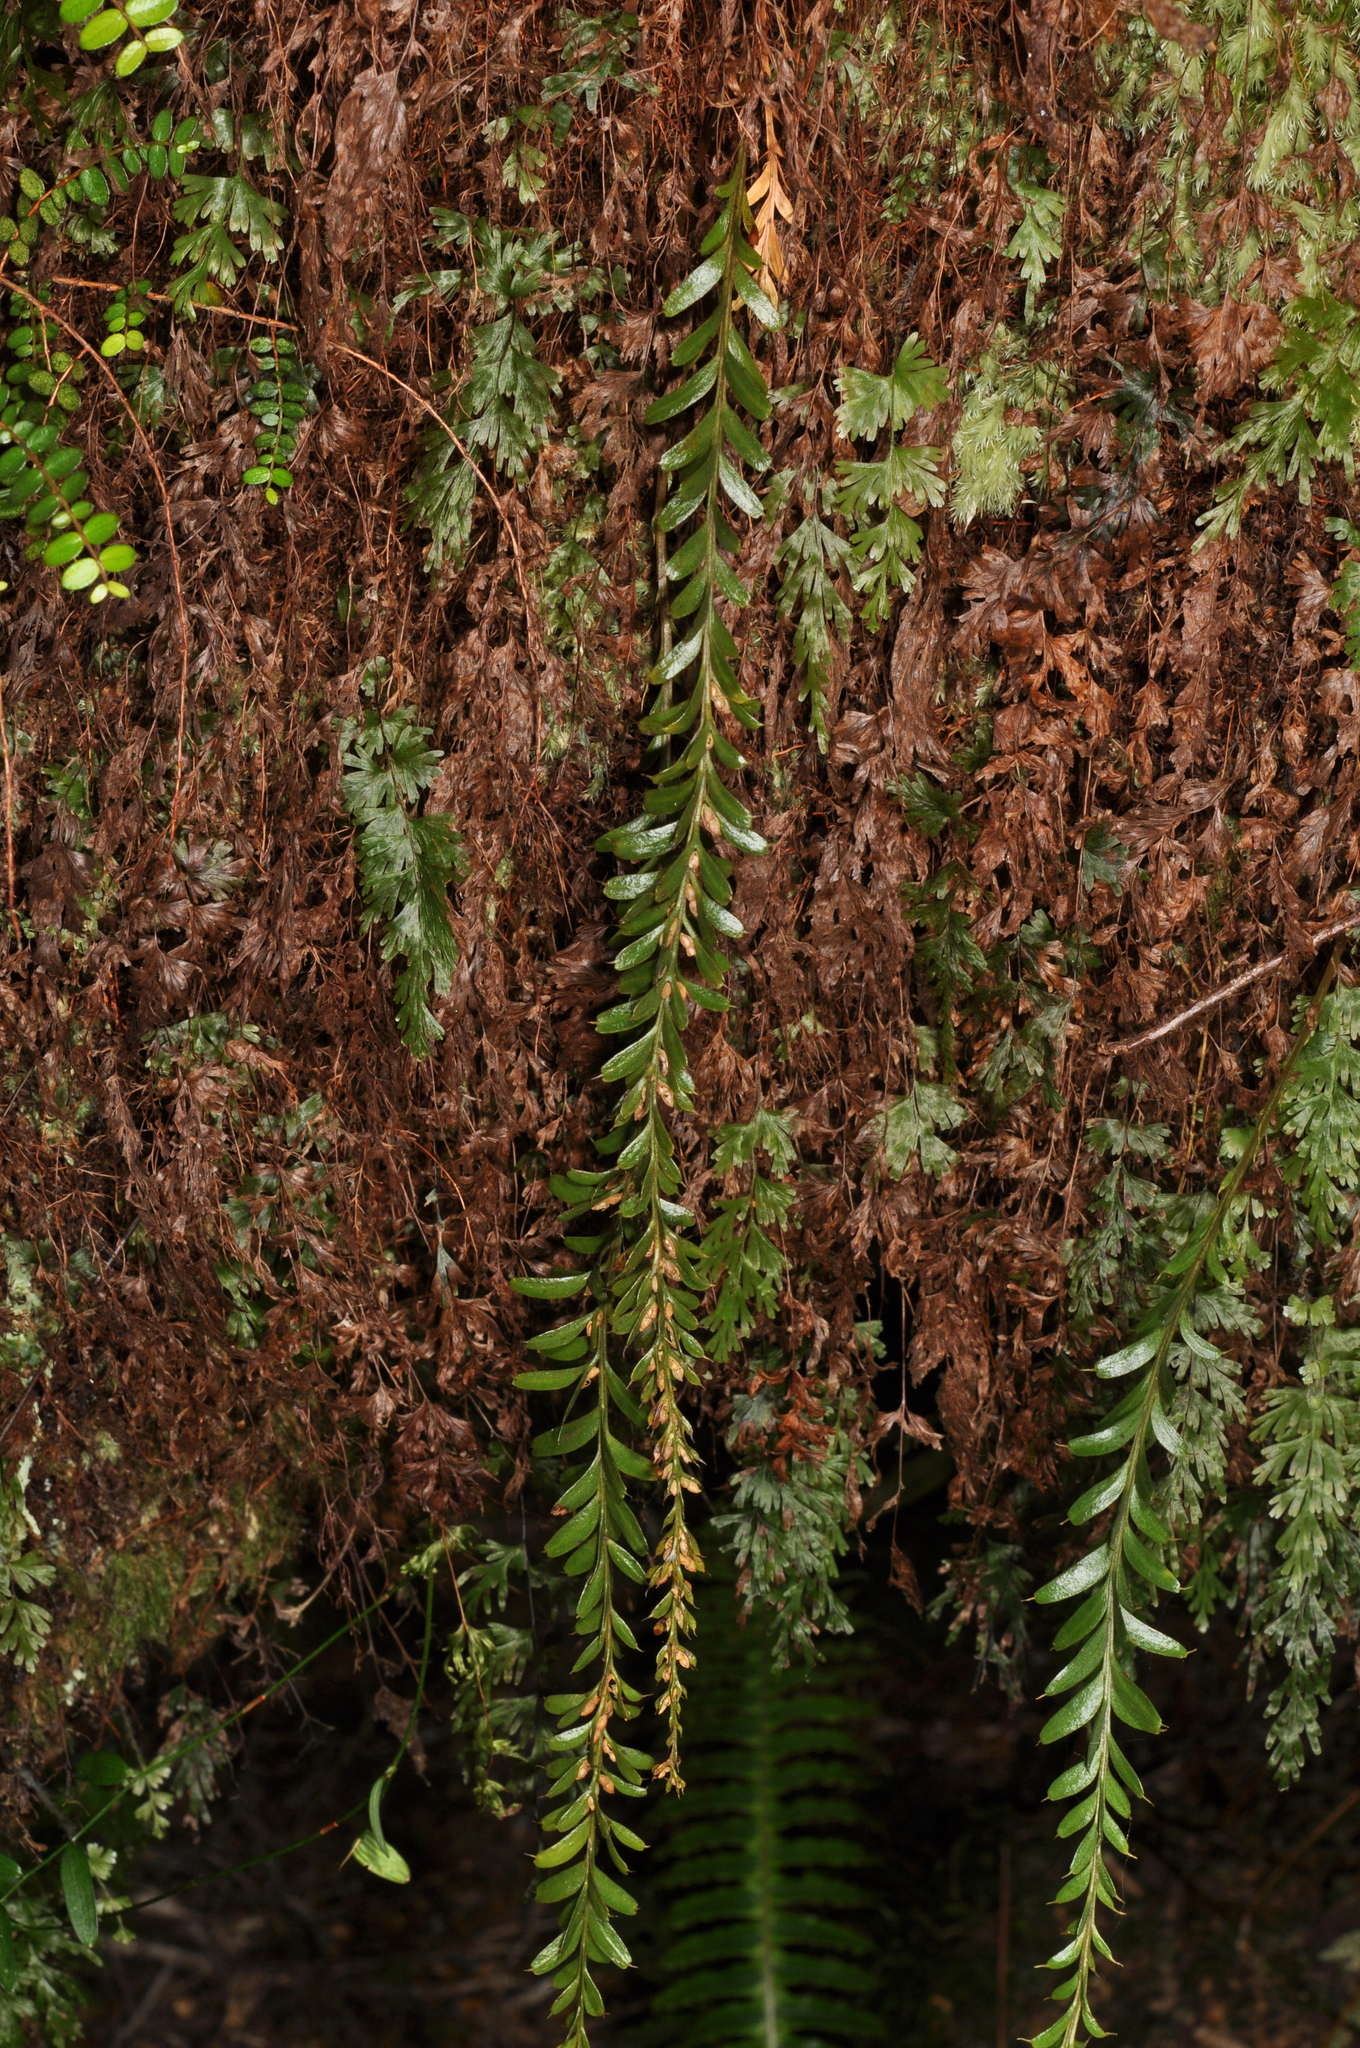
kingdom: Plantae
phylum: Tracheophyta
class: Polypodiopsida
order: Psilotales
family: Psilotaceae
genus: Tmesipteris
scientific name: Tmesipteris tannensis
